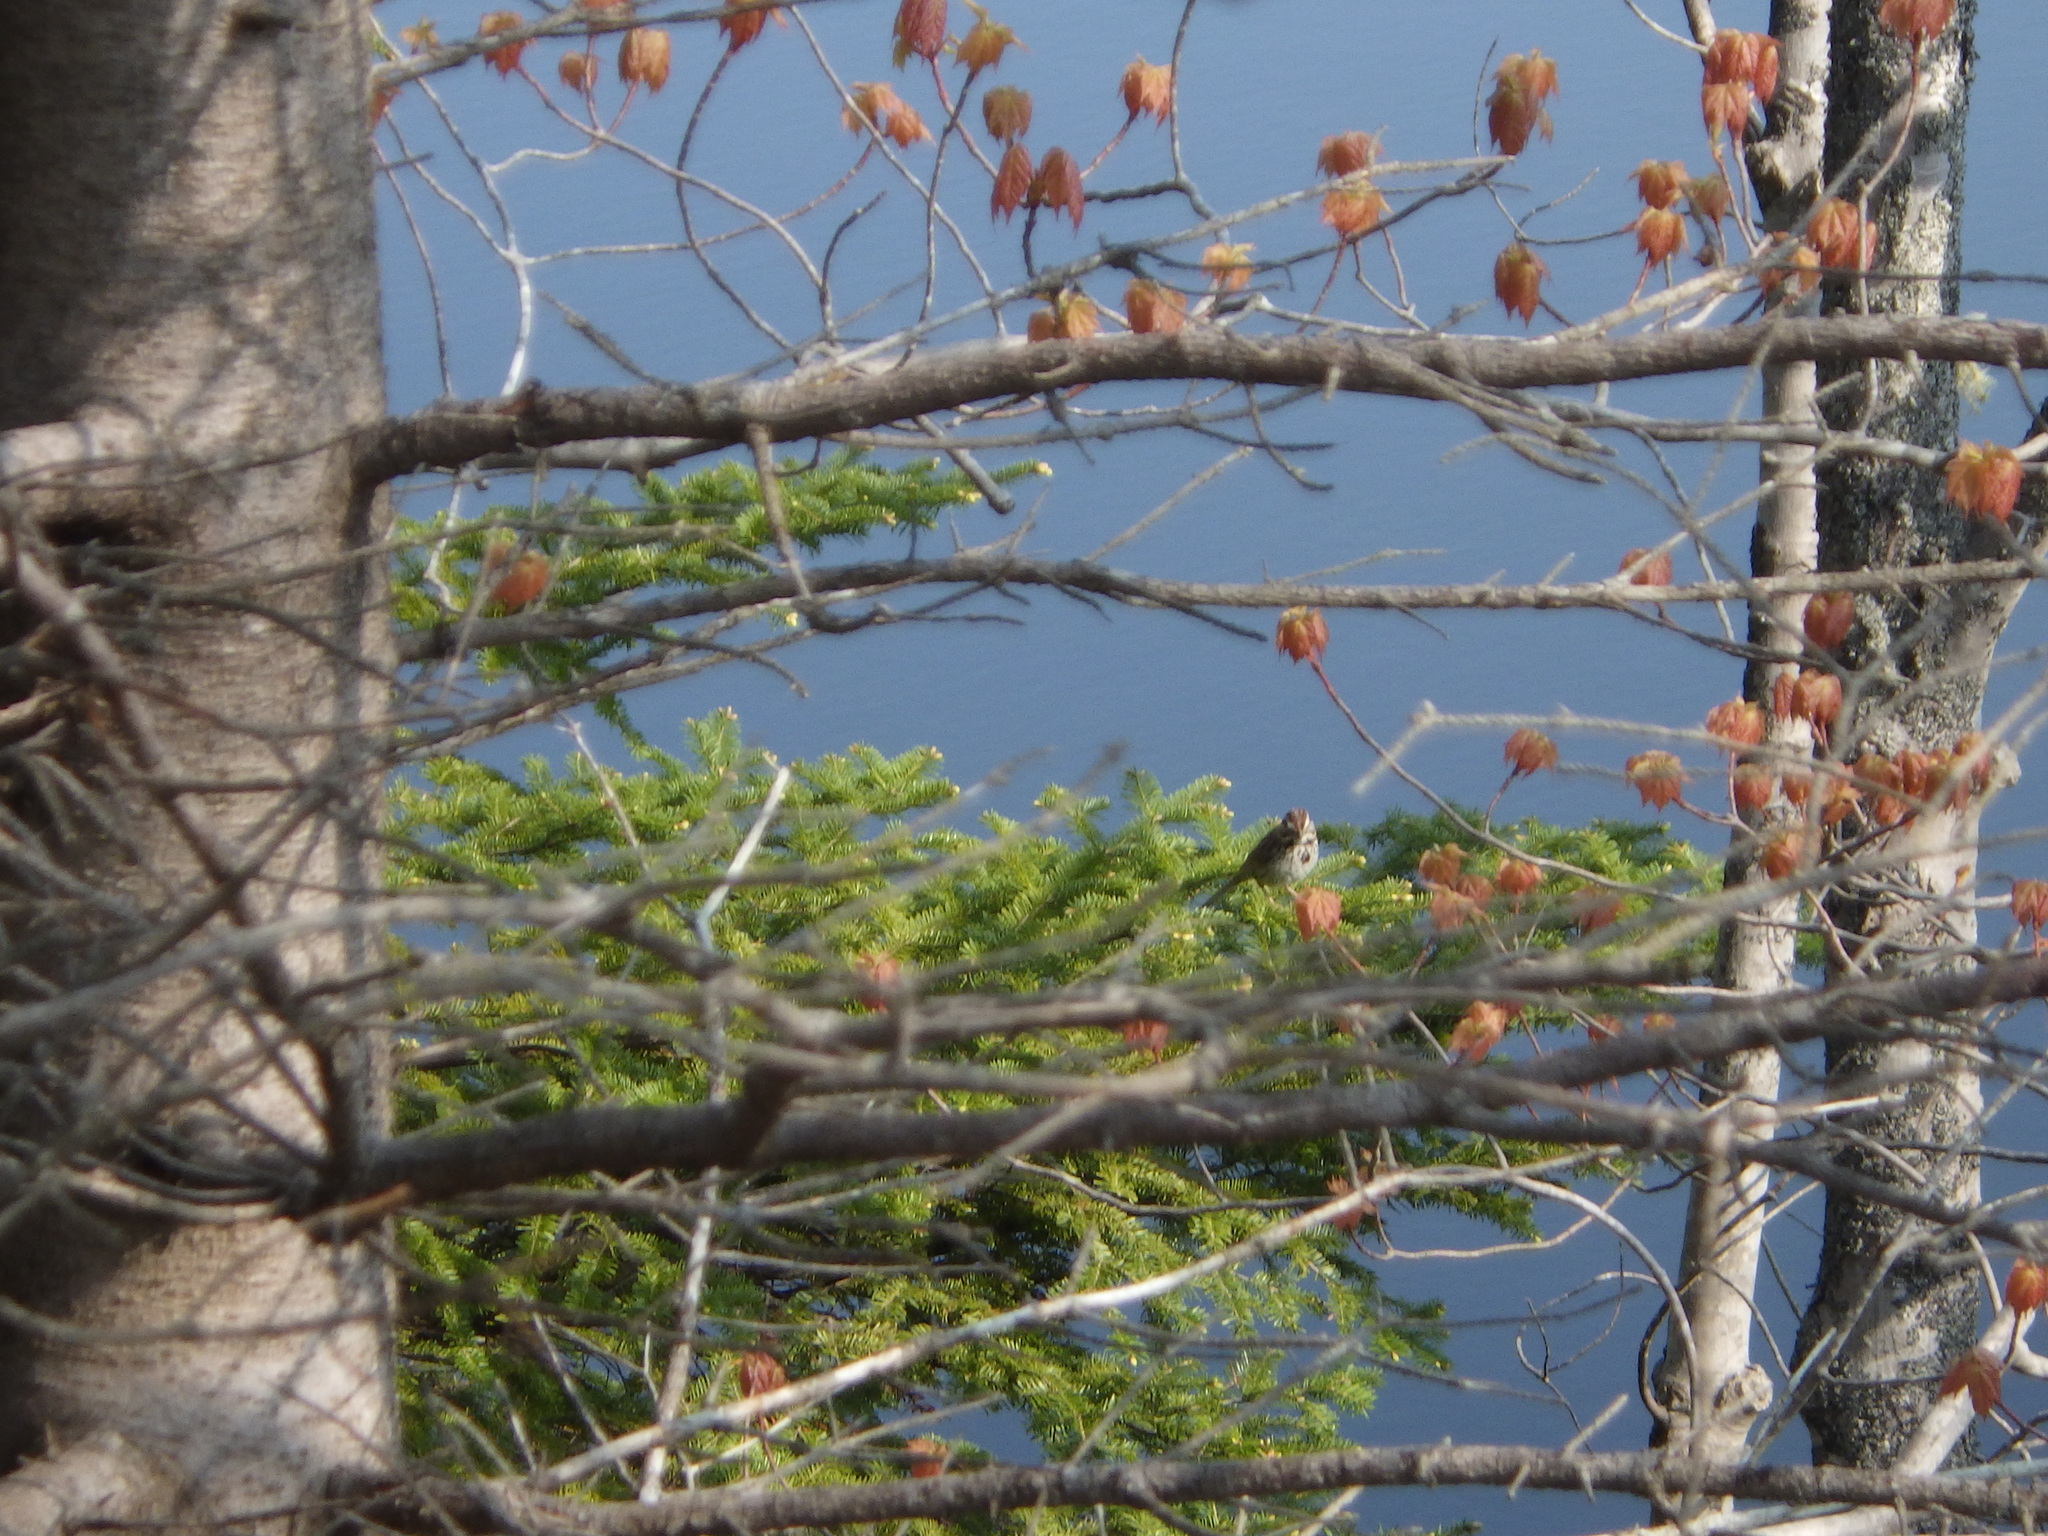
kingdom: Animalia
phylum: Chordata
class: Aves
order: Passeriformes
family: Passerellidae
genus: Melospiza
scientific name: Melospiza melodia
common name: Song sparrow
